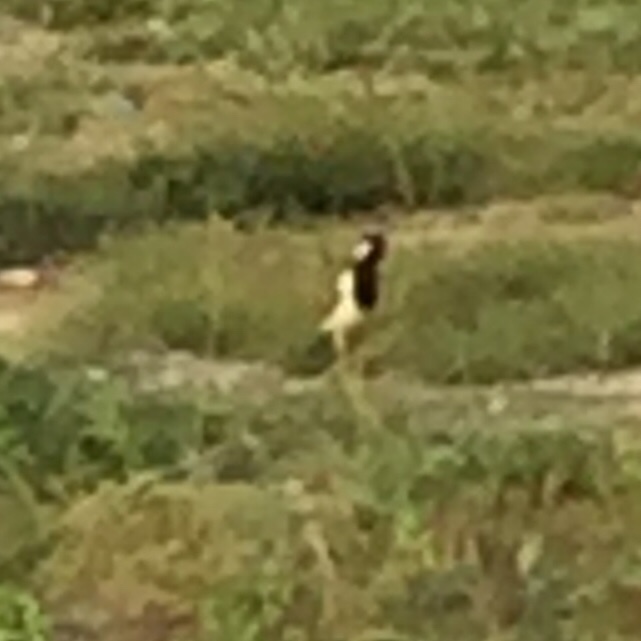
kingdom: Animalia
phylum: Chordata
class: Aves
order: Charadriiformes
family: Charadriidae
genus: Vanellus
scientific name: Vanellus indicus
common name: Red-wattled lapwing
